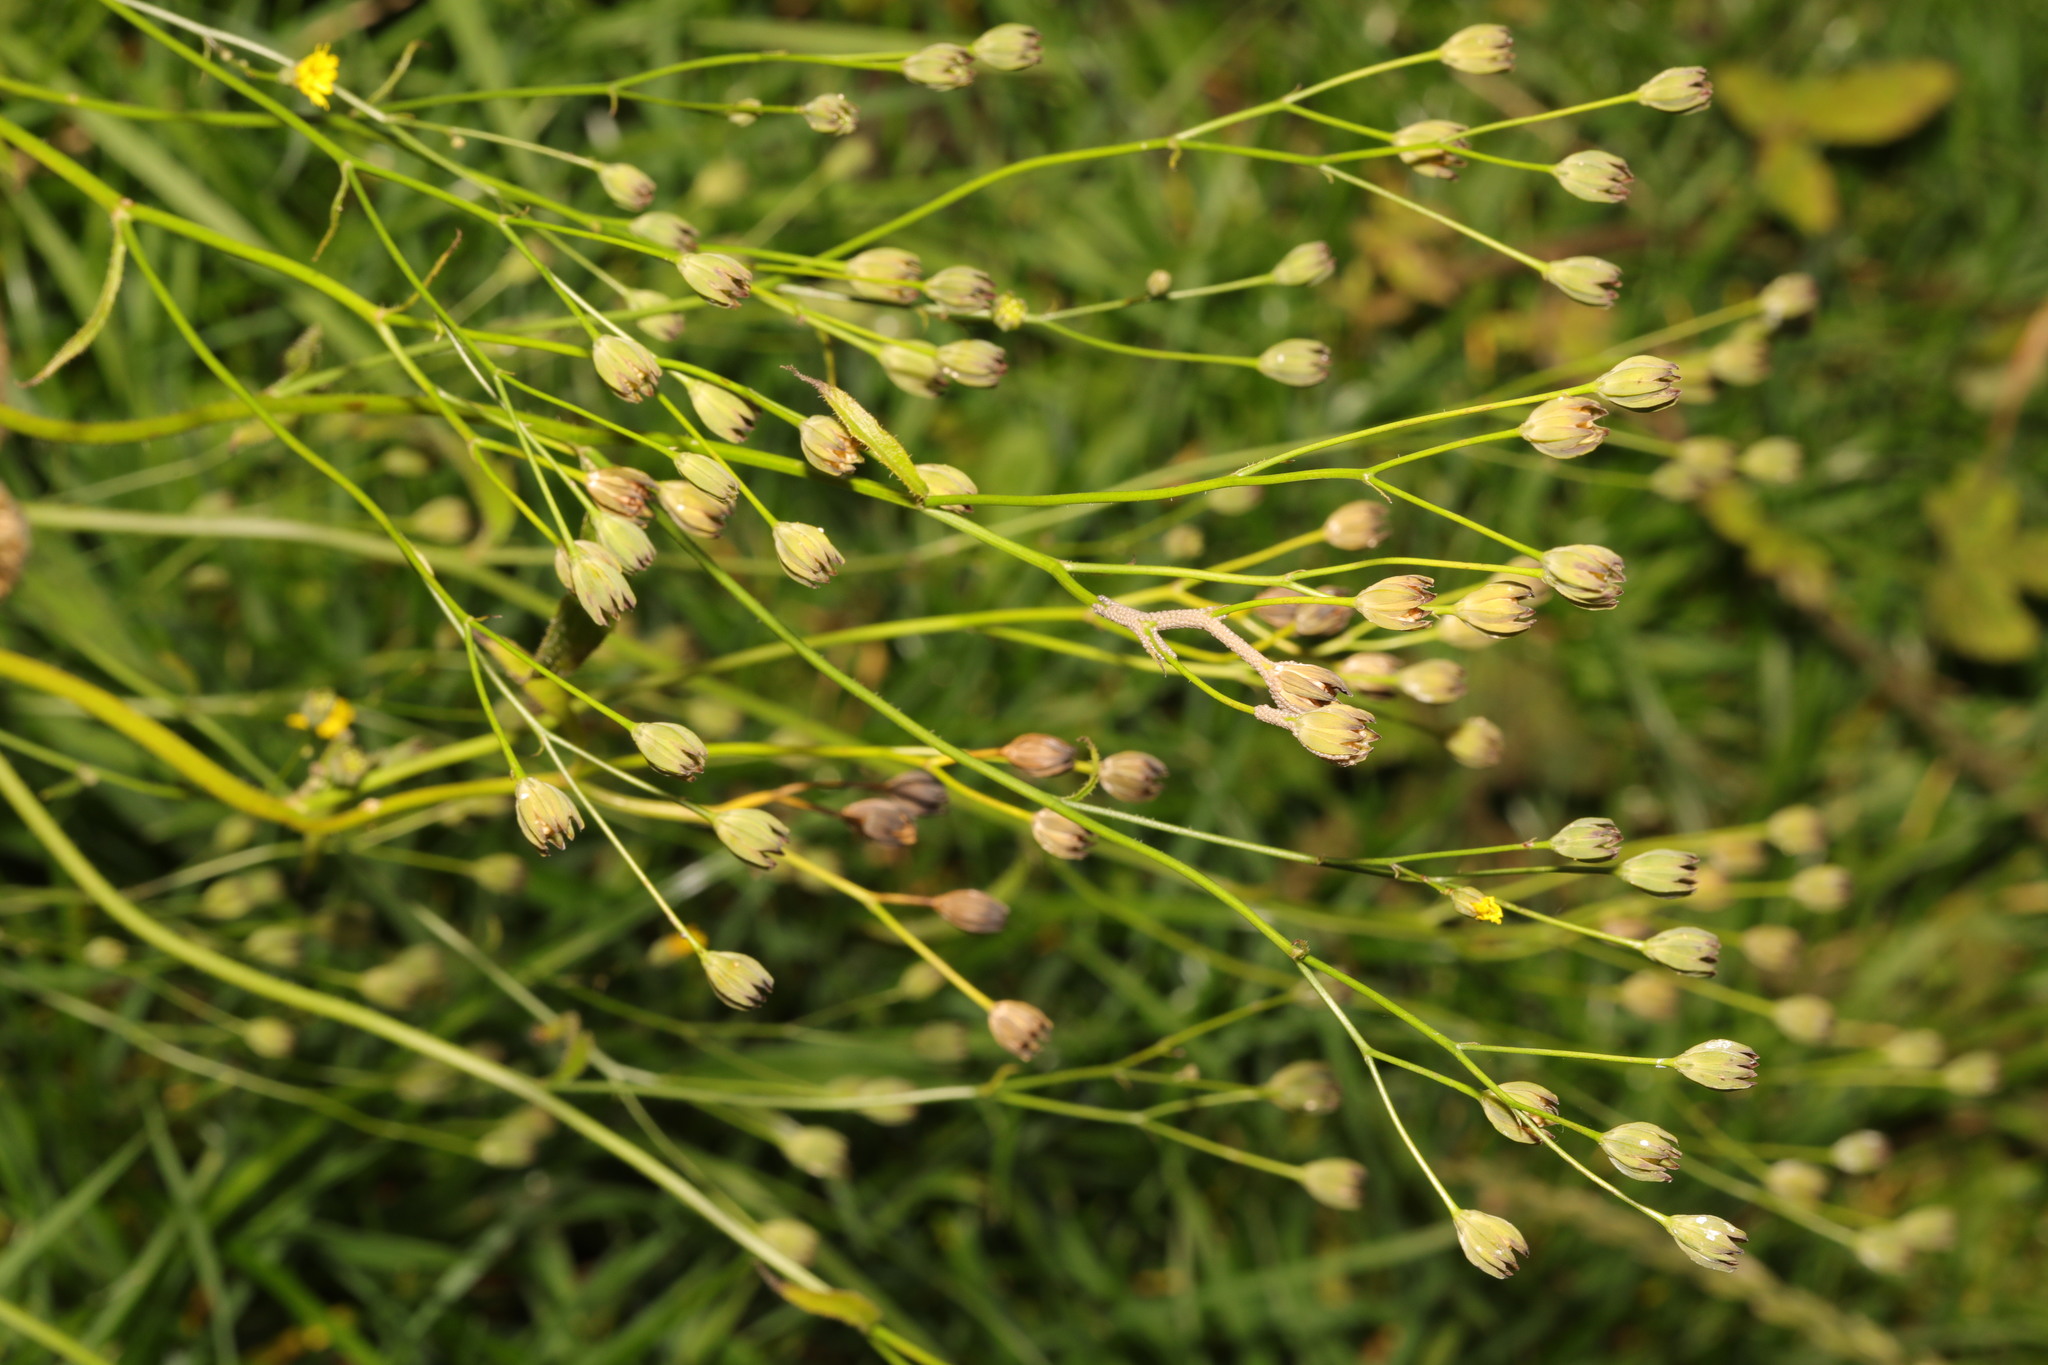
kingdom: Plantae
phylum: Tracheophyta
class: Magnoliopsida
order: Asterales
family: Asteraceae
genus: Lapsana
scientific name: Lapsana communis
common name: Nipplewort
